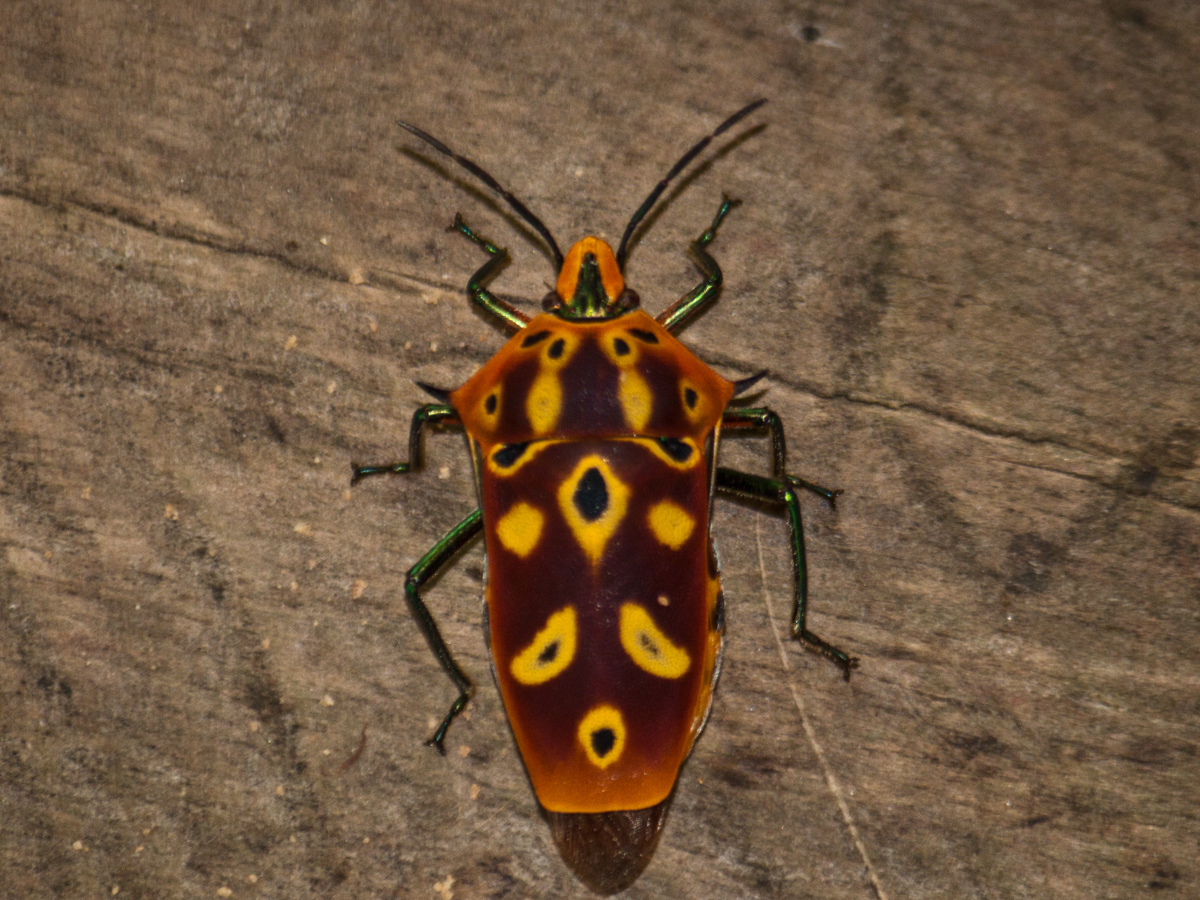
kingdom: Animalia
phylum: Arthropoda
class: Insecta
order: Hemiptera
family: Scutelleridae
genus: Cantao
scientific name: Cantao ocellatus
